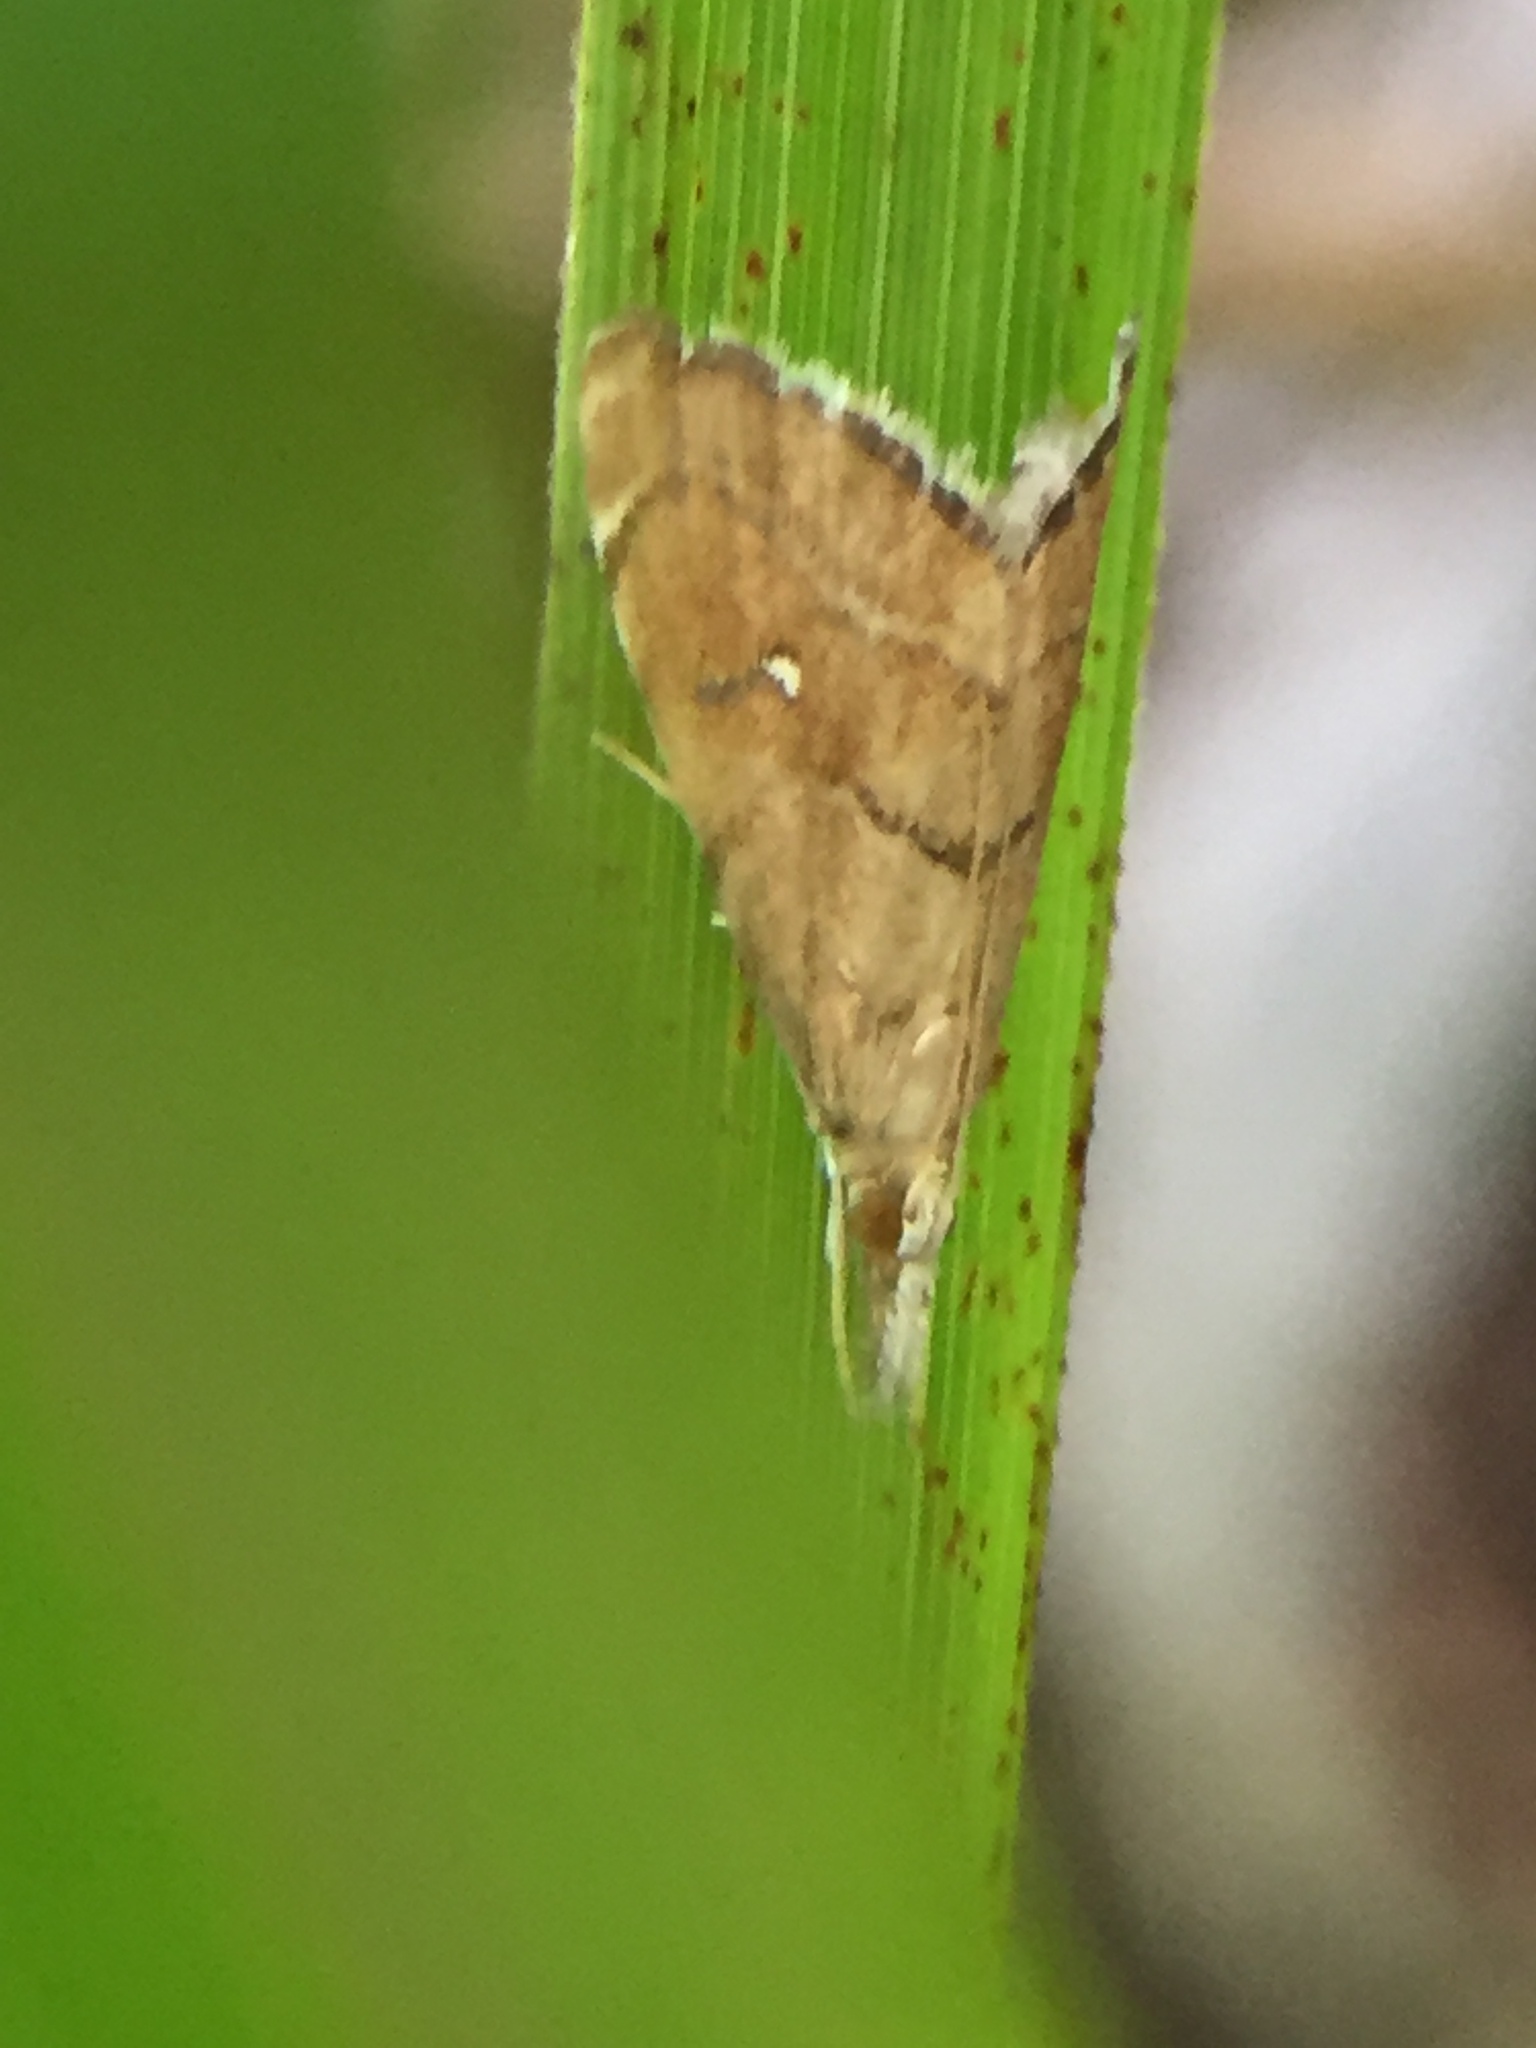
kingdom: Animalia
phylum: Arthropoda
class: Insecta
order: Lepidoptera
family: Crambidae
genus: Glaucocharis
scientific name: Glaucocharis bipunctella
